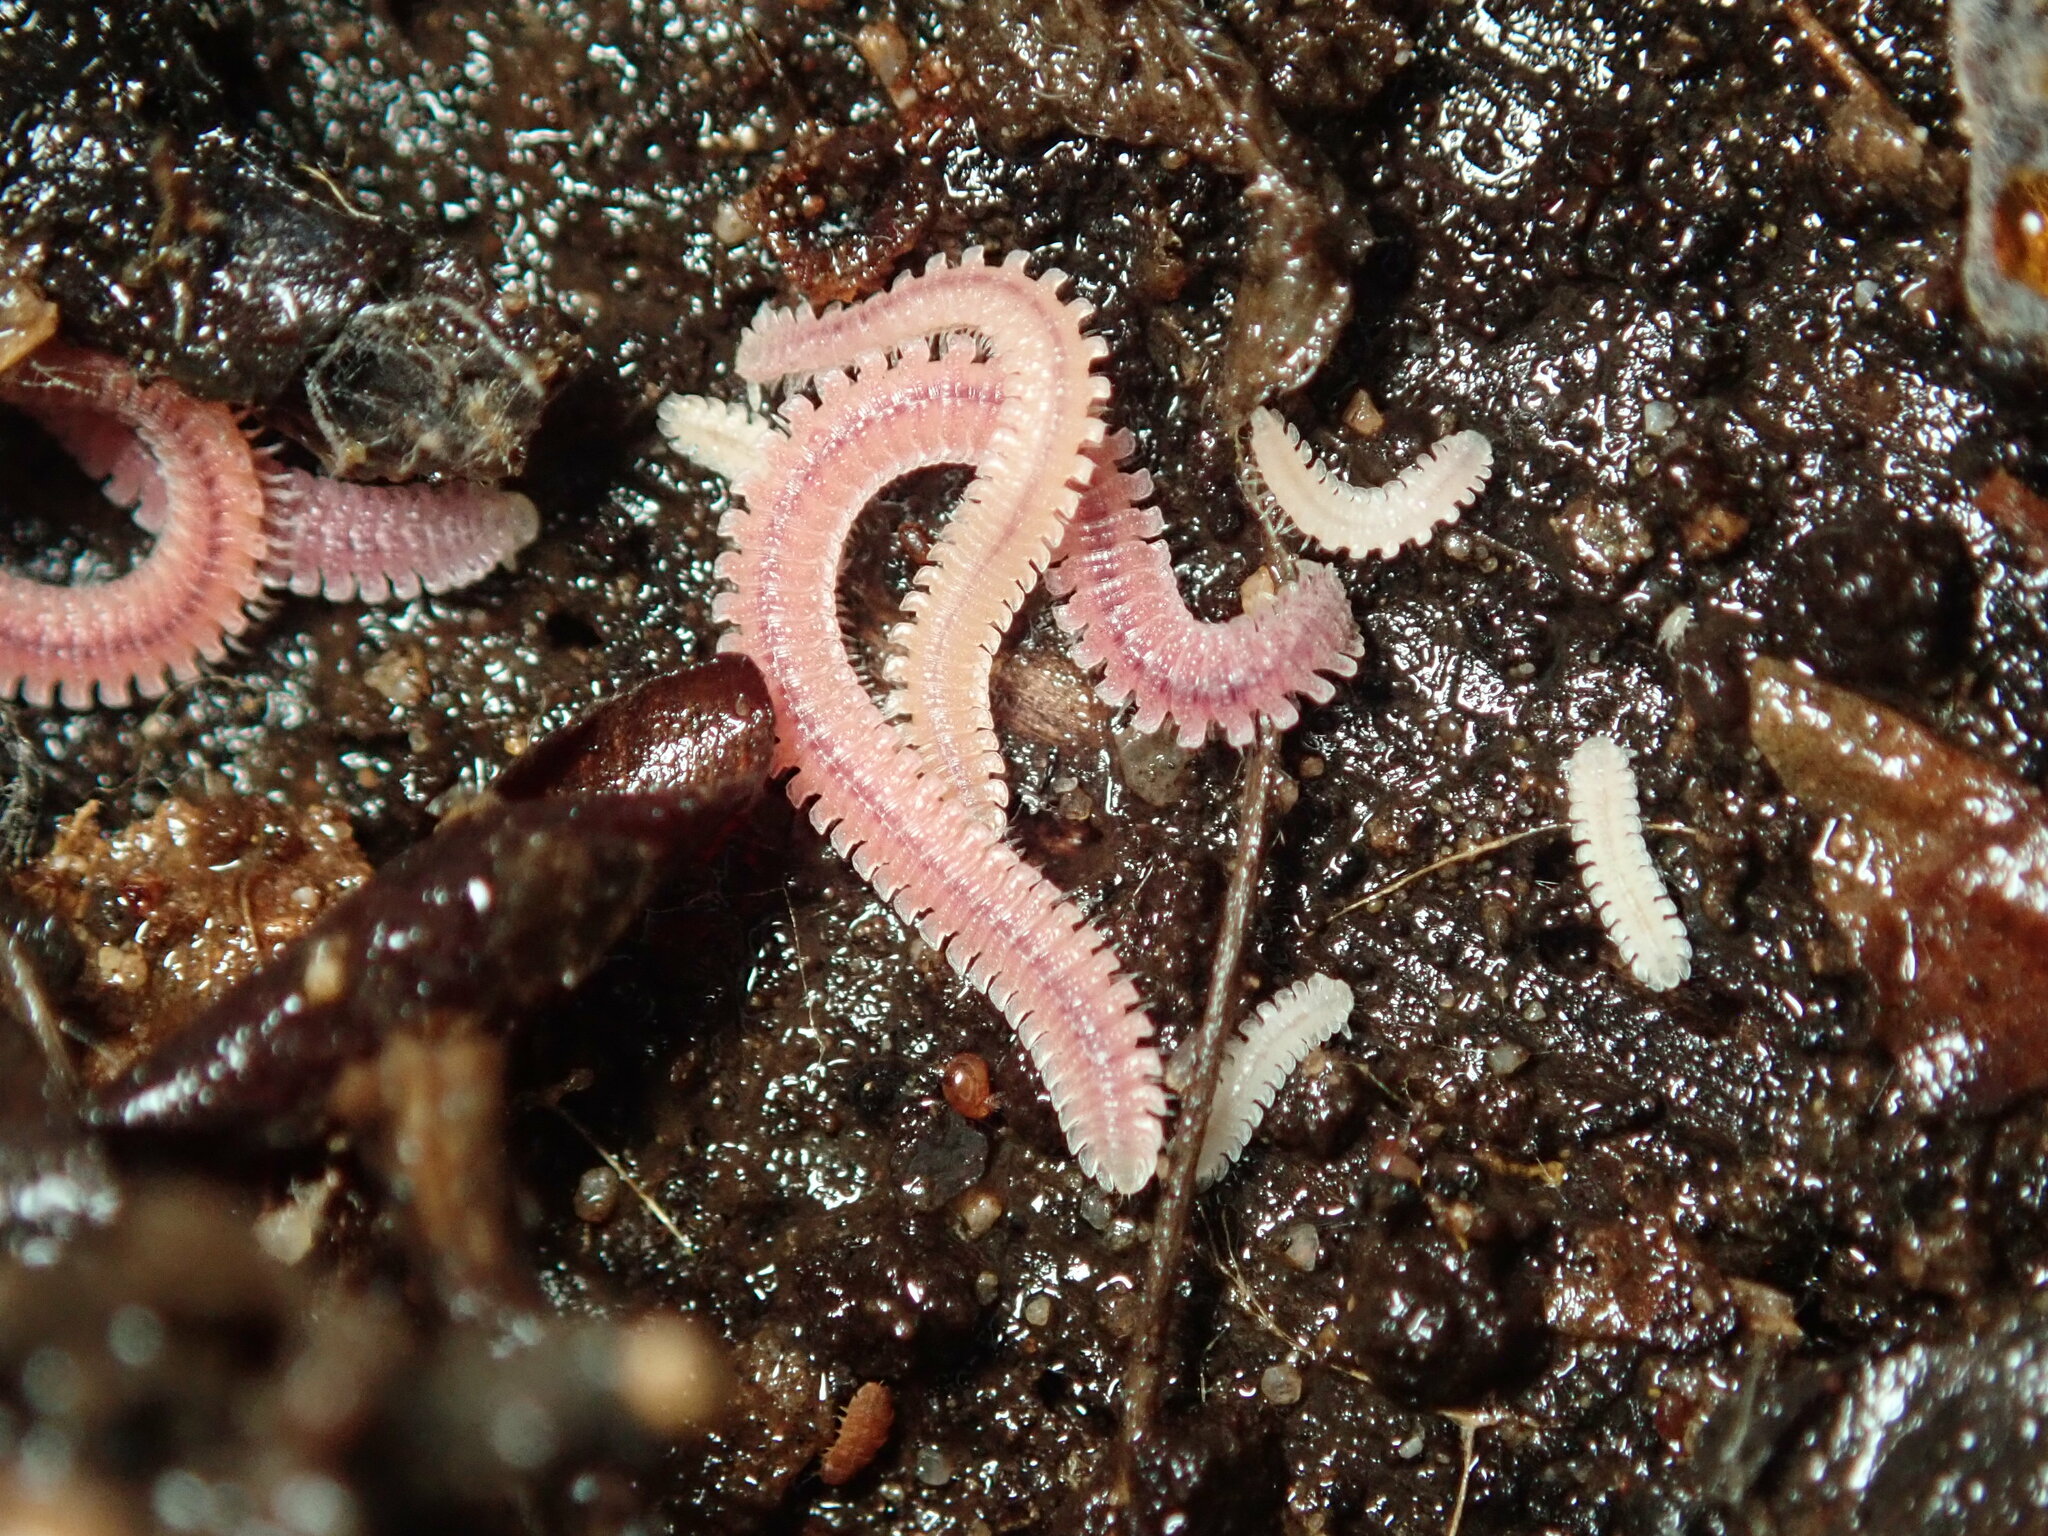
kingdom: Animalia
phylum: Arthropoda
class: Diplopoda
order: Platydesmida
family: Andrognathidae
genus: Gosodesmus
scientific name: Gosodesmus claremontus
